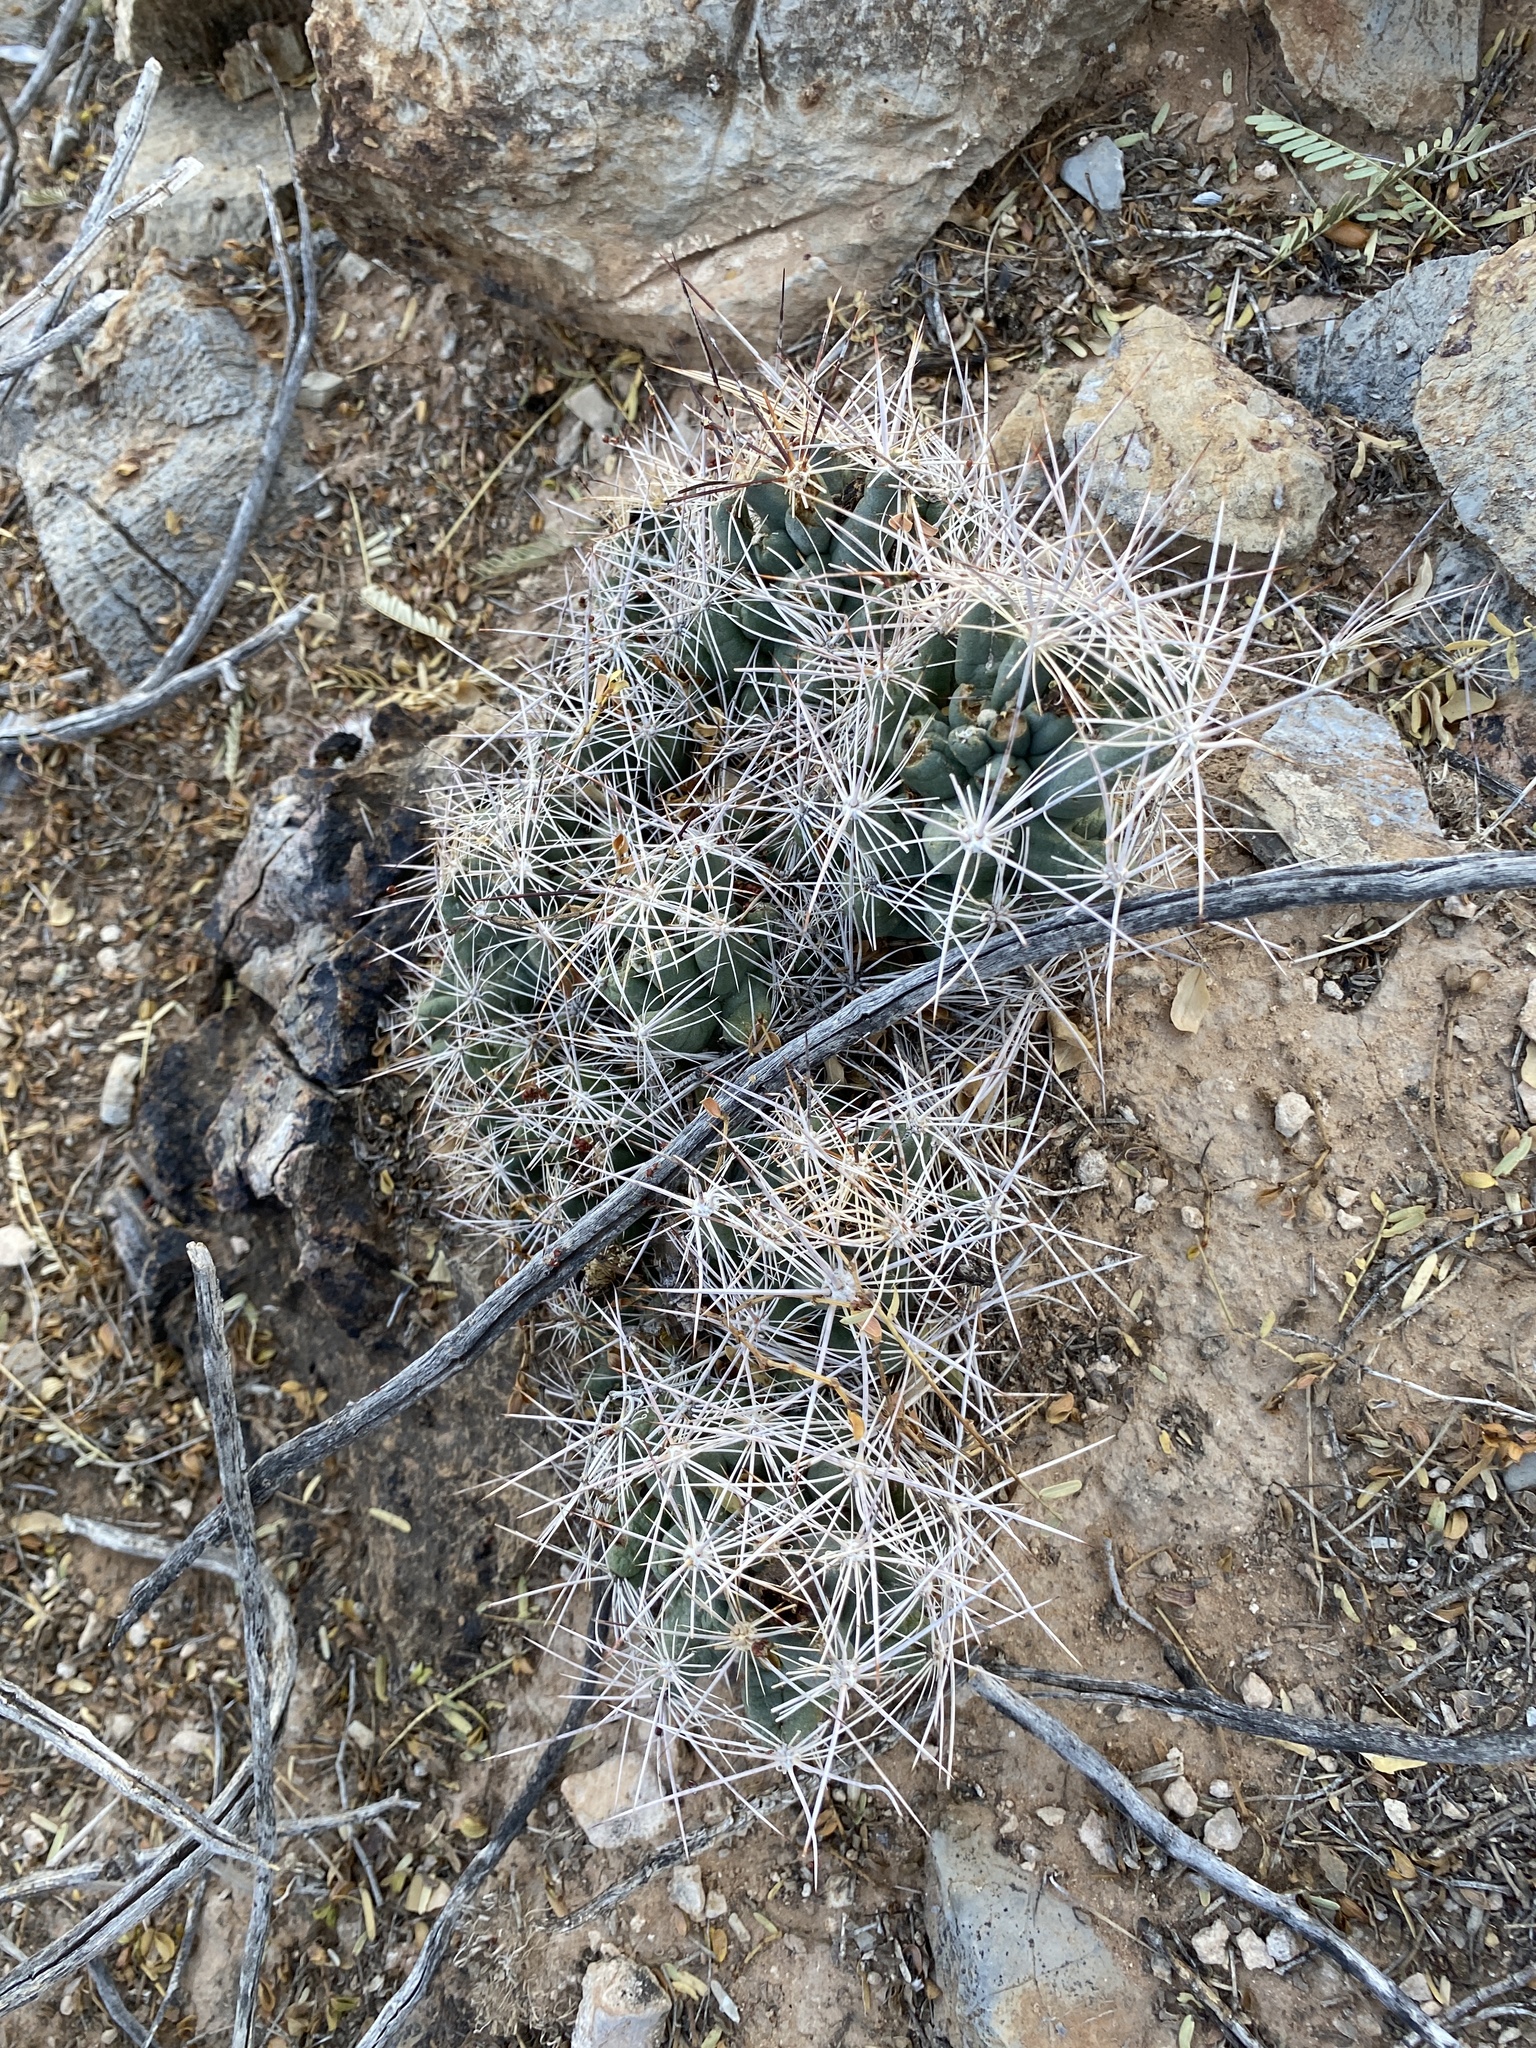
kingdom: Plantae
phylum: Tracheophyta
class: Magnoliopsida
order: Caryophyllales
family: Cactaceae
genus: Coryphantha
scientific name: Coryphantha macromeris
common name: Nipple beehive cactus
